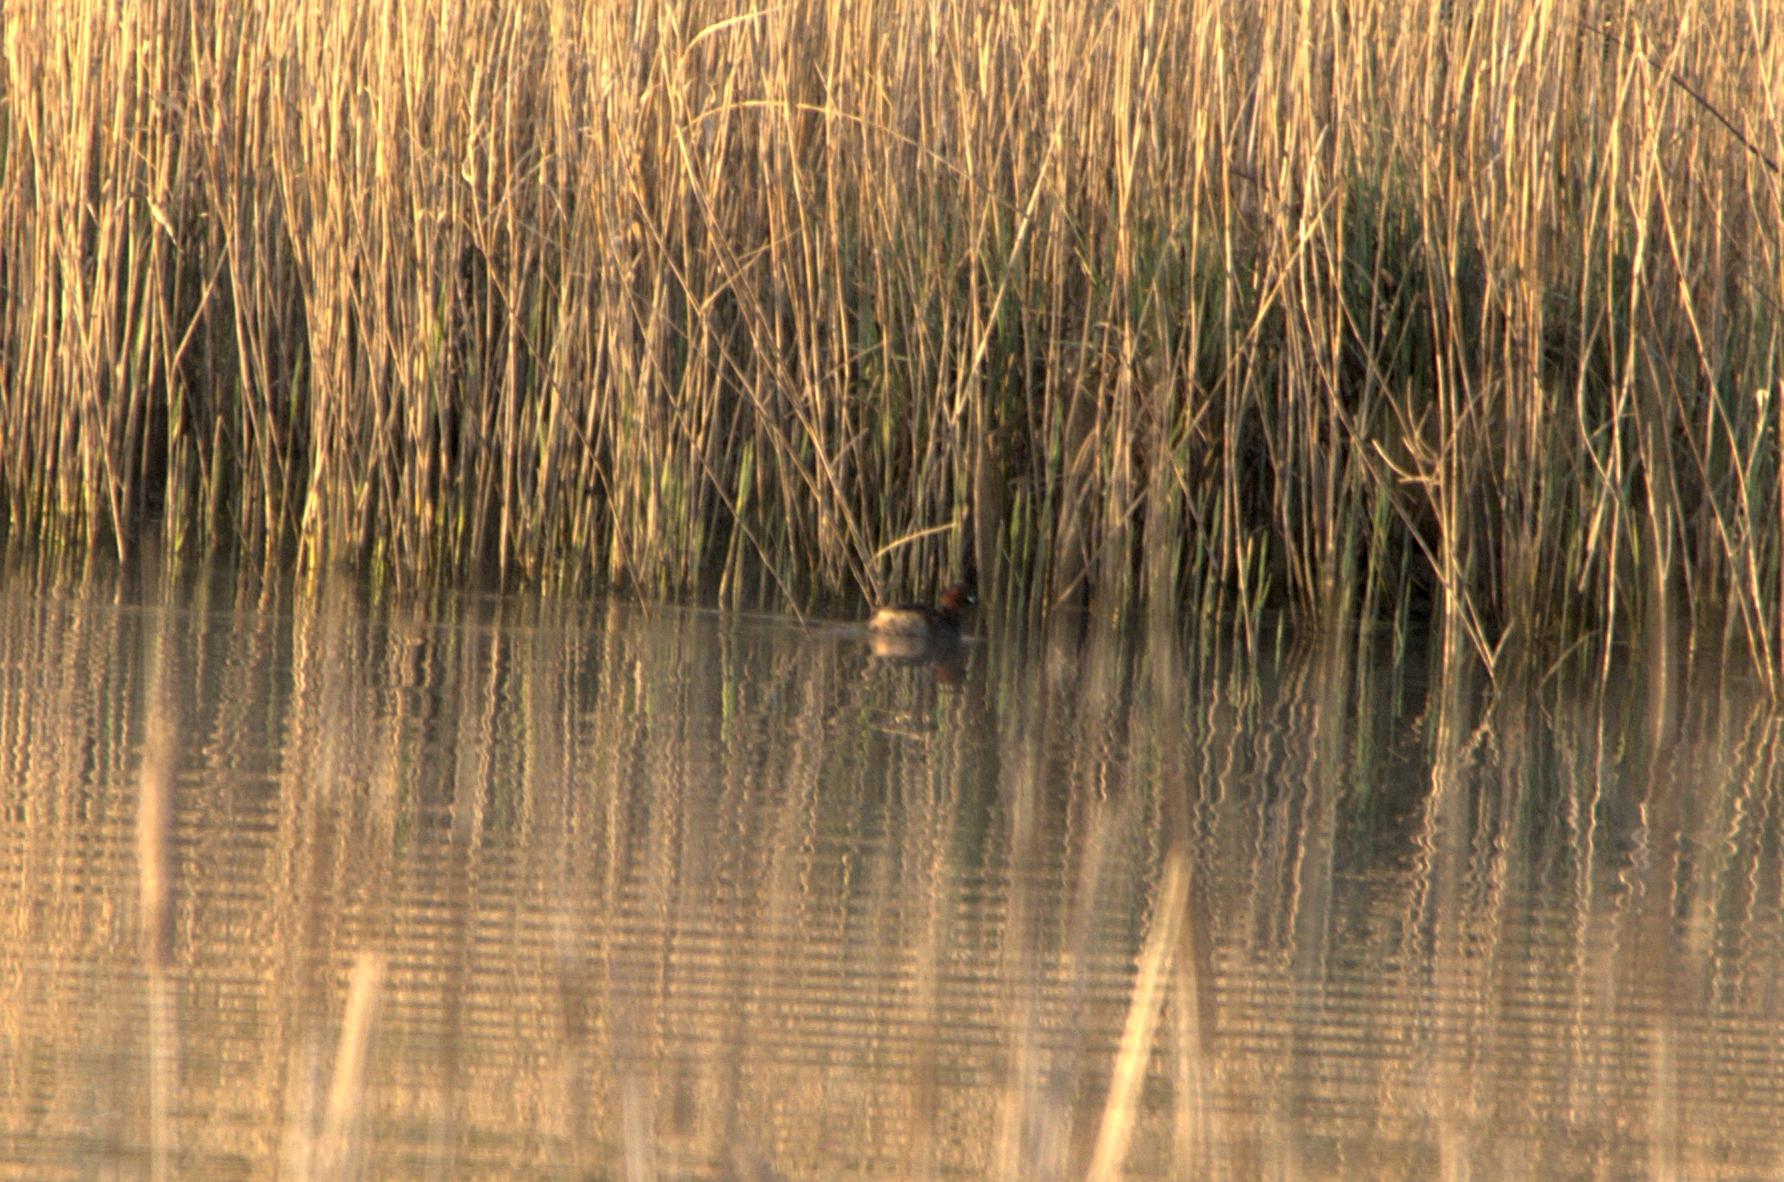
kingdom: Animalia
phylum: Chordata
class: Aves
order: Podicipediformes
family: Podicipedidae
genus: Tachybaptus
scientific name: Tachybaptus ruficollis
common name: Little grebe
